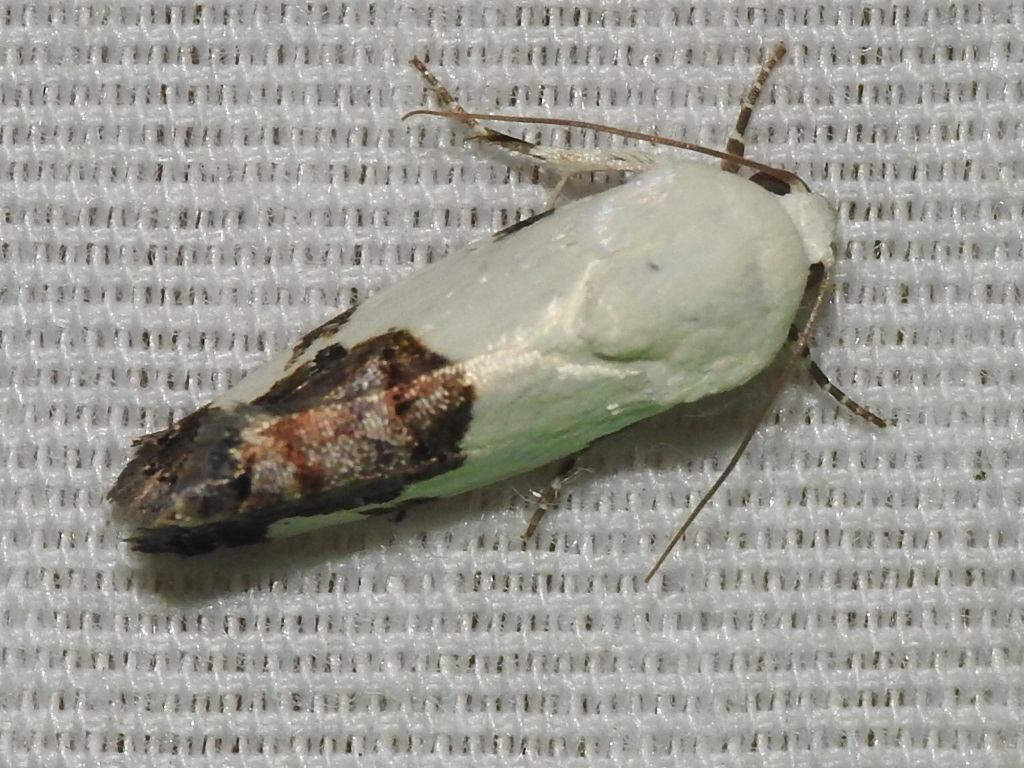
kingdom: Animalia
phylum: Arthropoda
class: Insecta
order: Lepidoptera
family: Noctuidae
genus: Acontia
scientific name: Acontia quadriplaga
